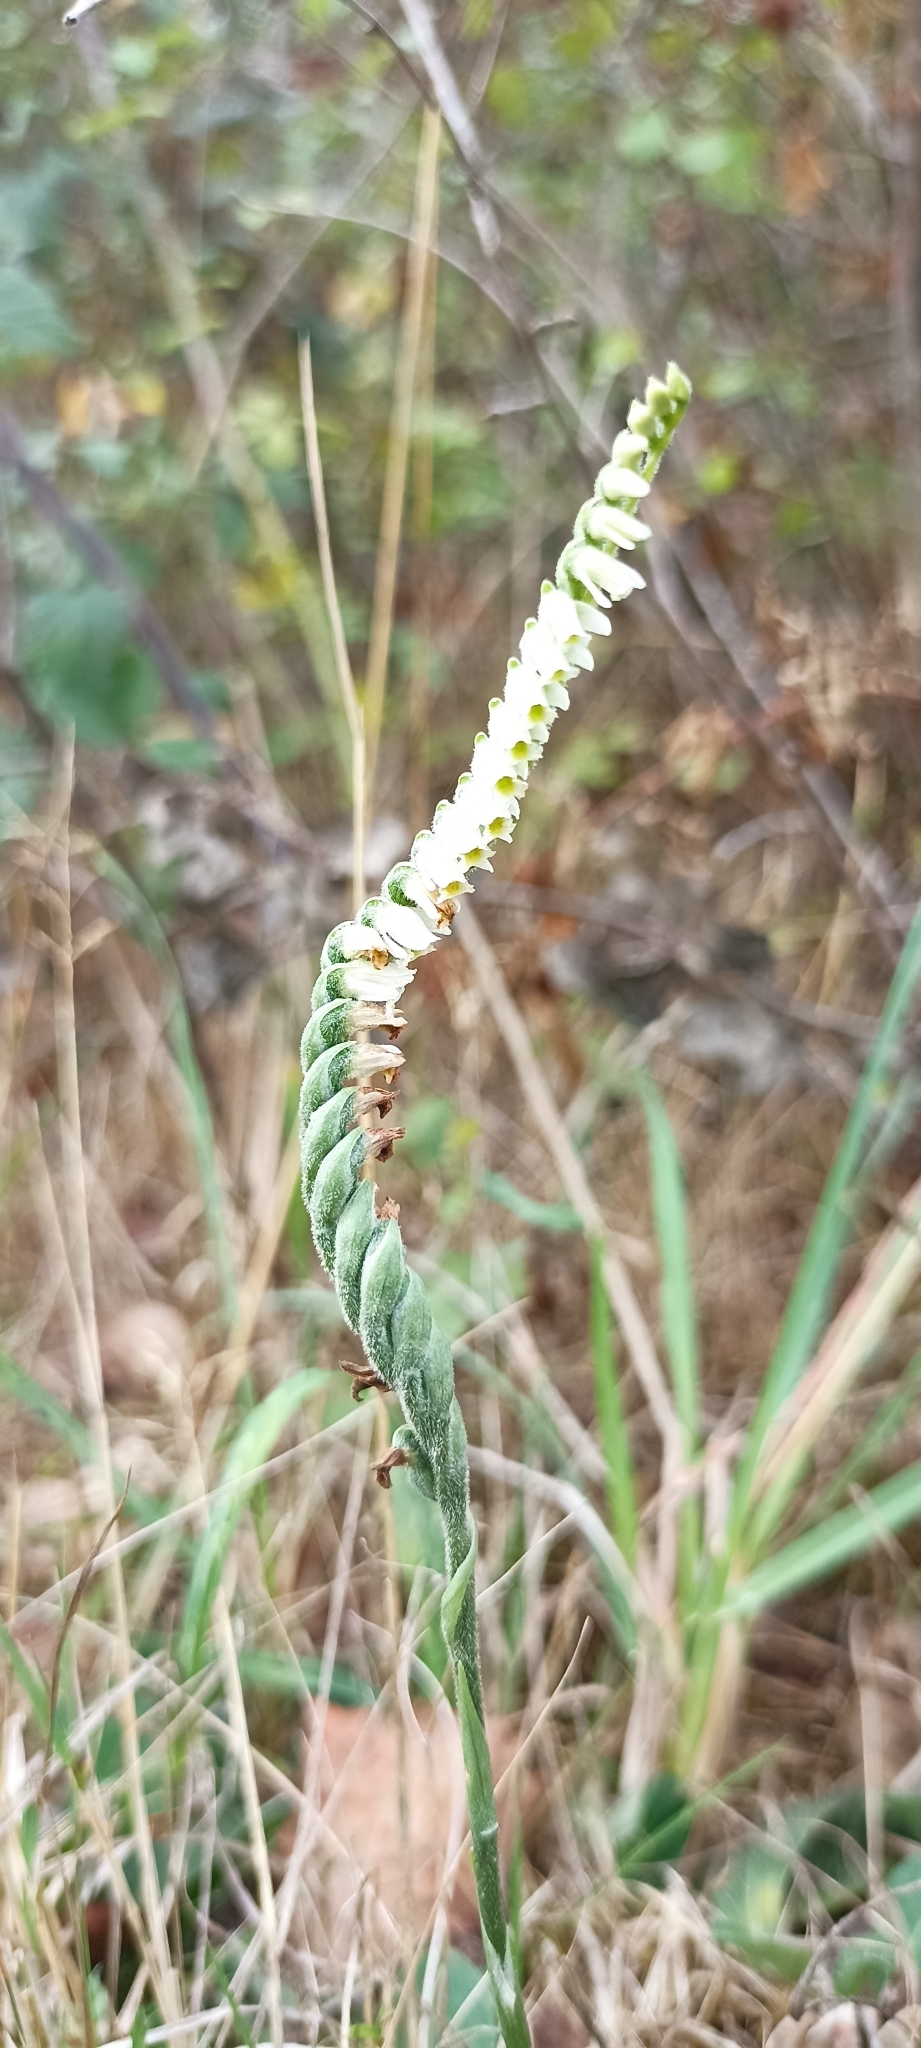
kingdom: Plantae
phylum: Tracheophyta
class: Liliopsida
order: Asparagales
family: Orchidaceae
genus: Spiranthes
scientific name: Spiranthes spiralis
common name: Autumn lady's-tresses
